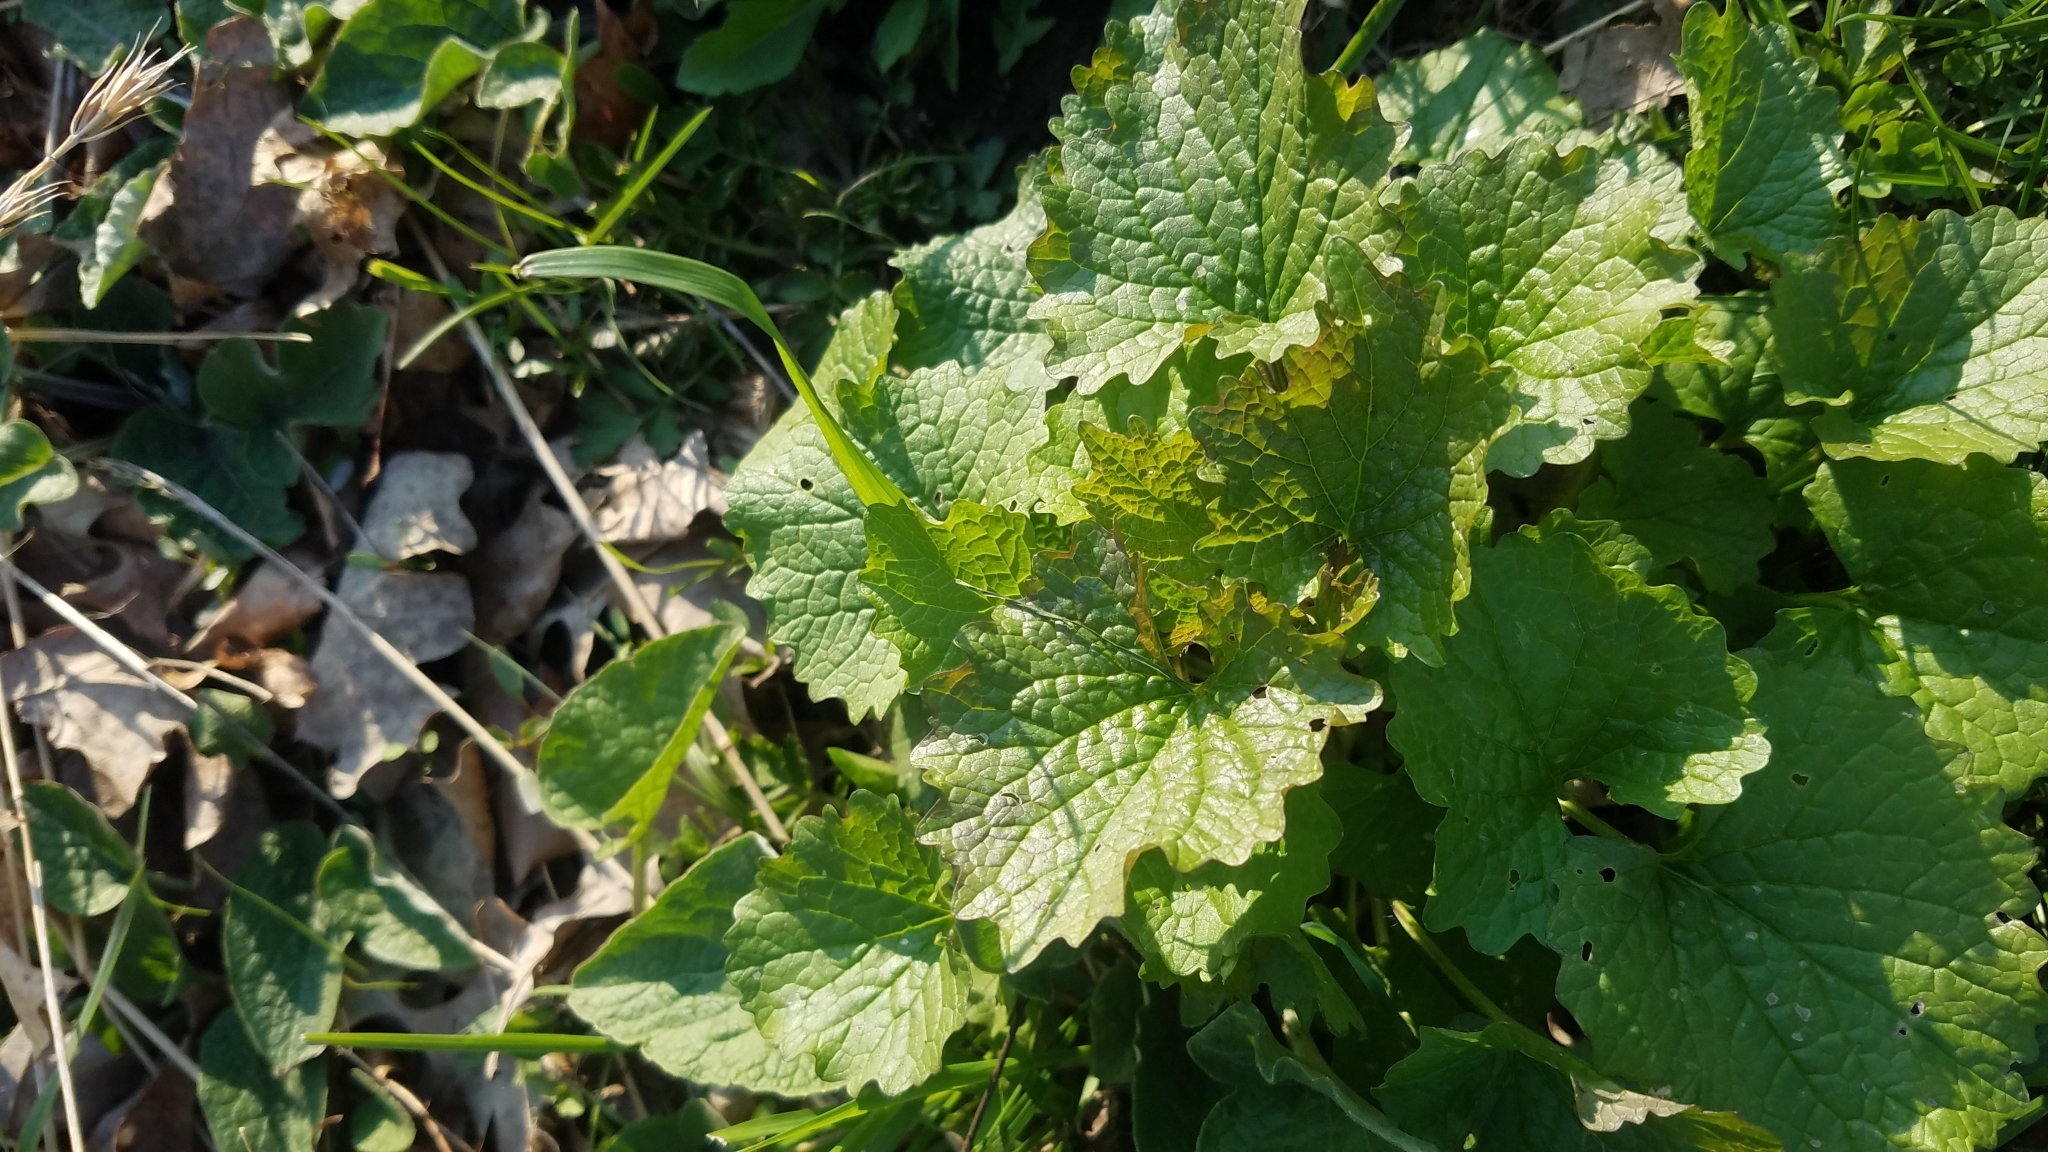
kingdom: Plantae
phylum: Tracheophyta
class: Magnoliopsida
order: Brassicales
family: Brassicaceae
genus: Alliaria
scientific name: Alliaria petiolata
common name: Garlic mustard
